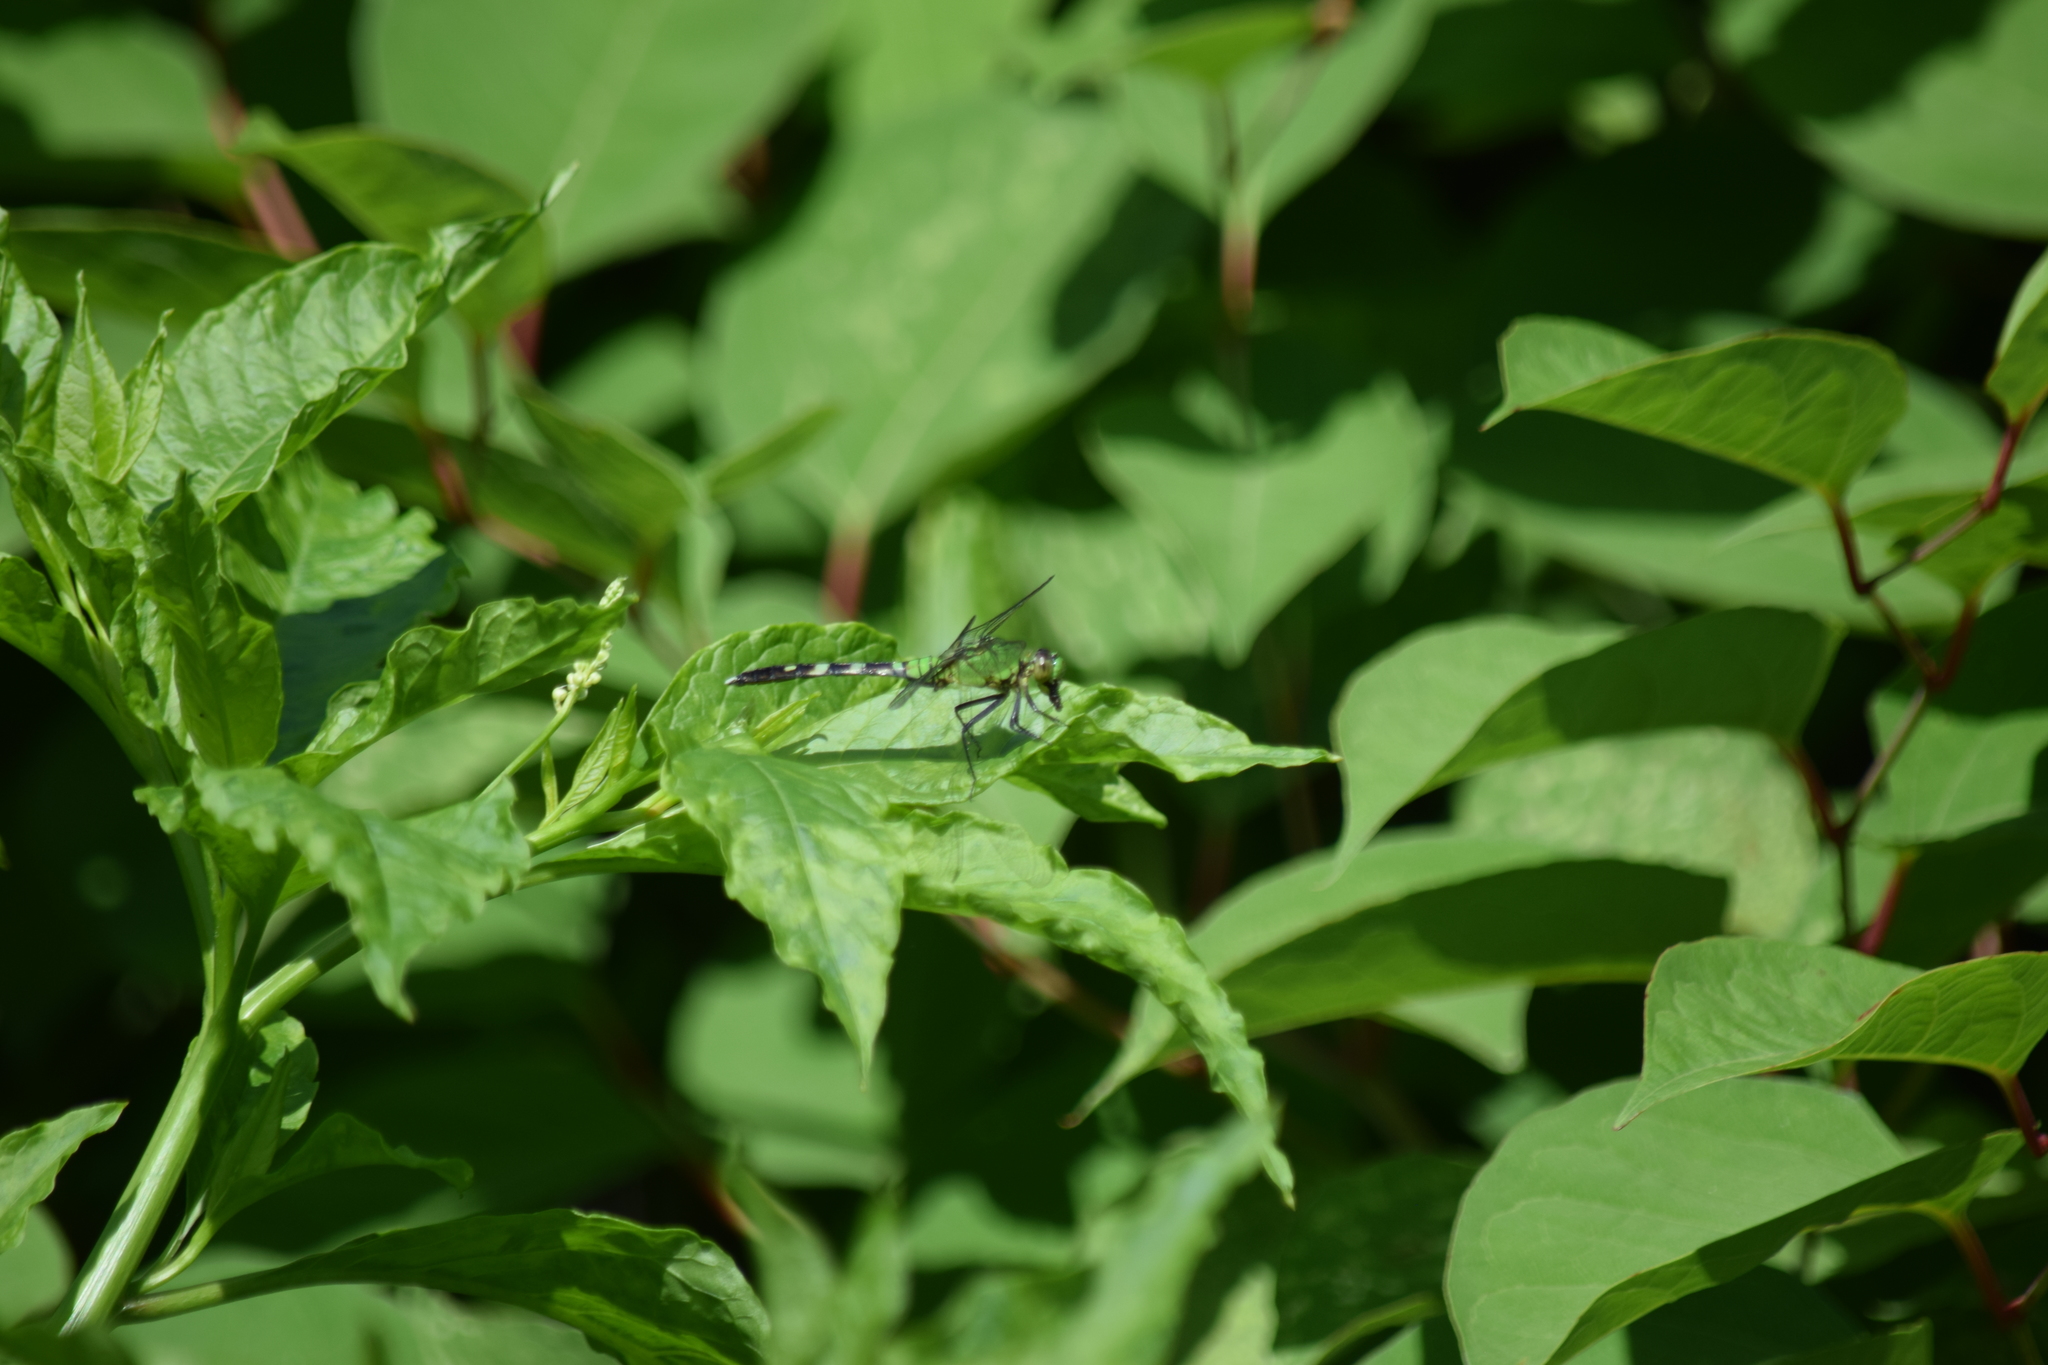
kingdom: Animalia
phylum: Arthropoda
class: Insecta
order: Odonata
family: Libellulidae
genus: Erythemis
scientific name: Erythemis simplicicollis
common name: Eastern pondhawk
